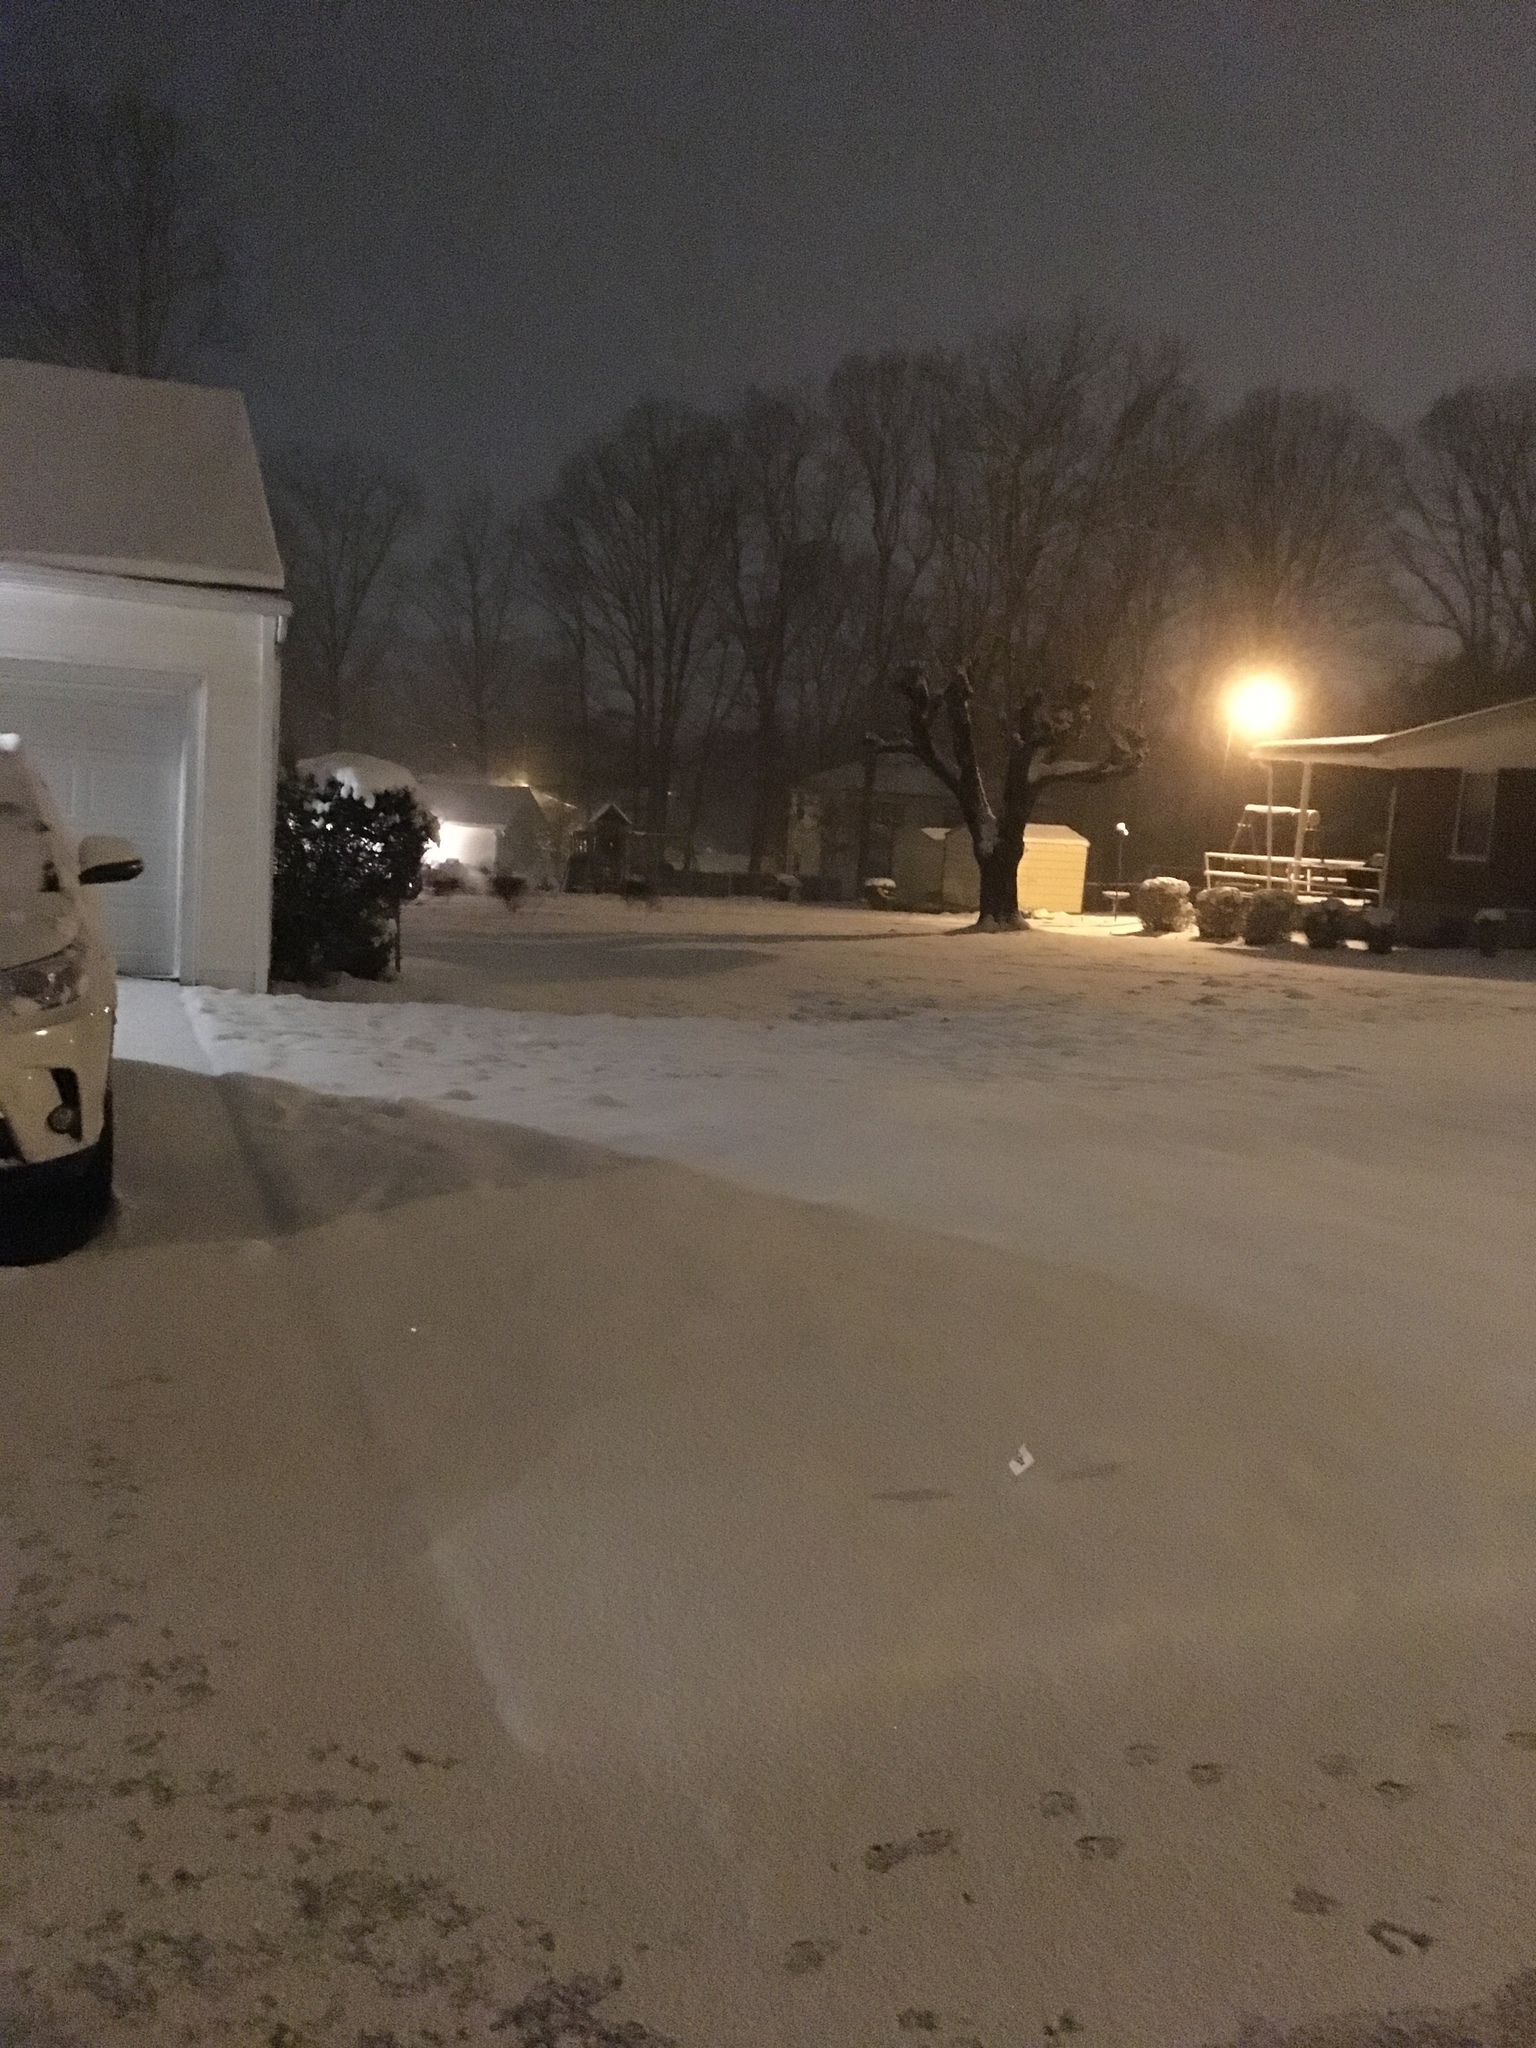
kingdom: Animalia
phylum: Chordata
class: Mammalia
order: Artiodactyla
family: Cervidae
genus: Odocoileus
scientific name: Odocoileus virginianus
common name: White-tailed deer
